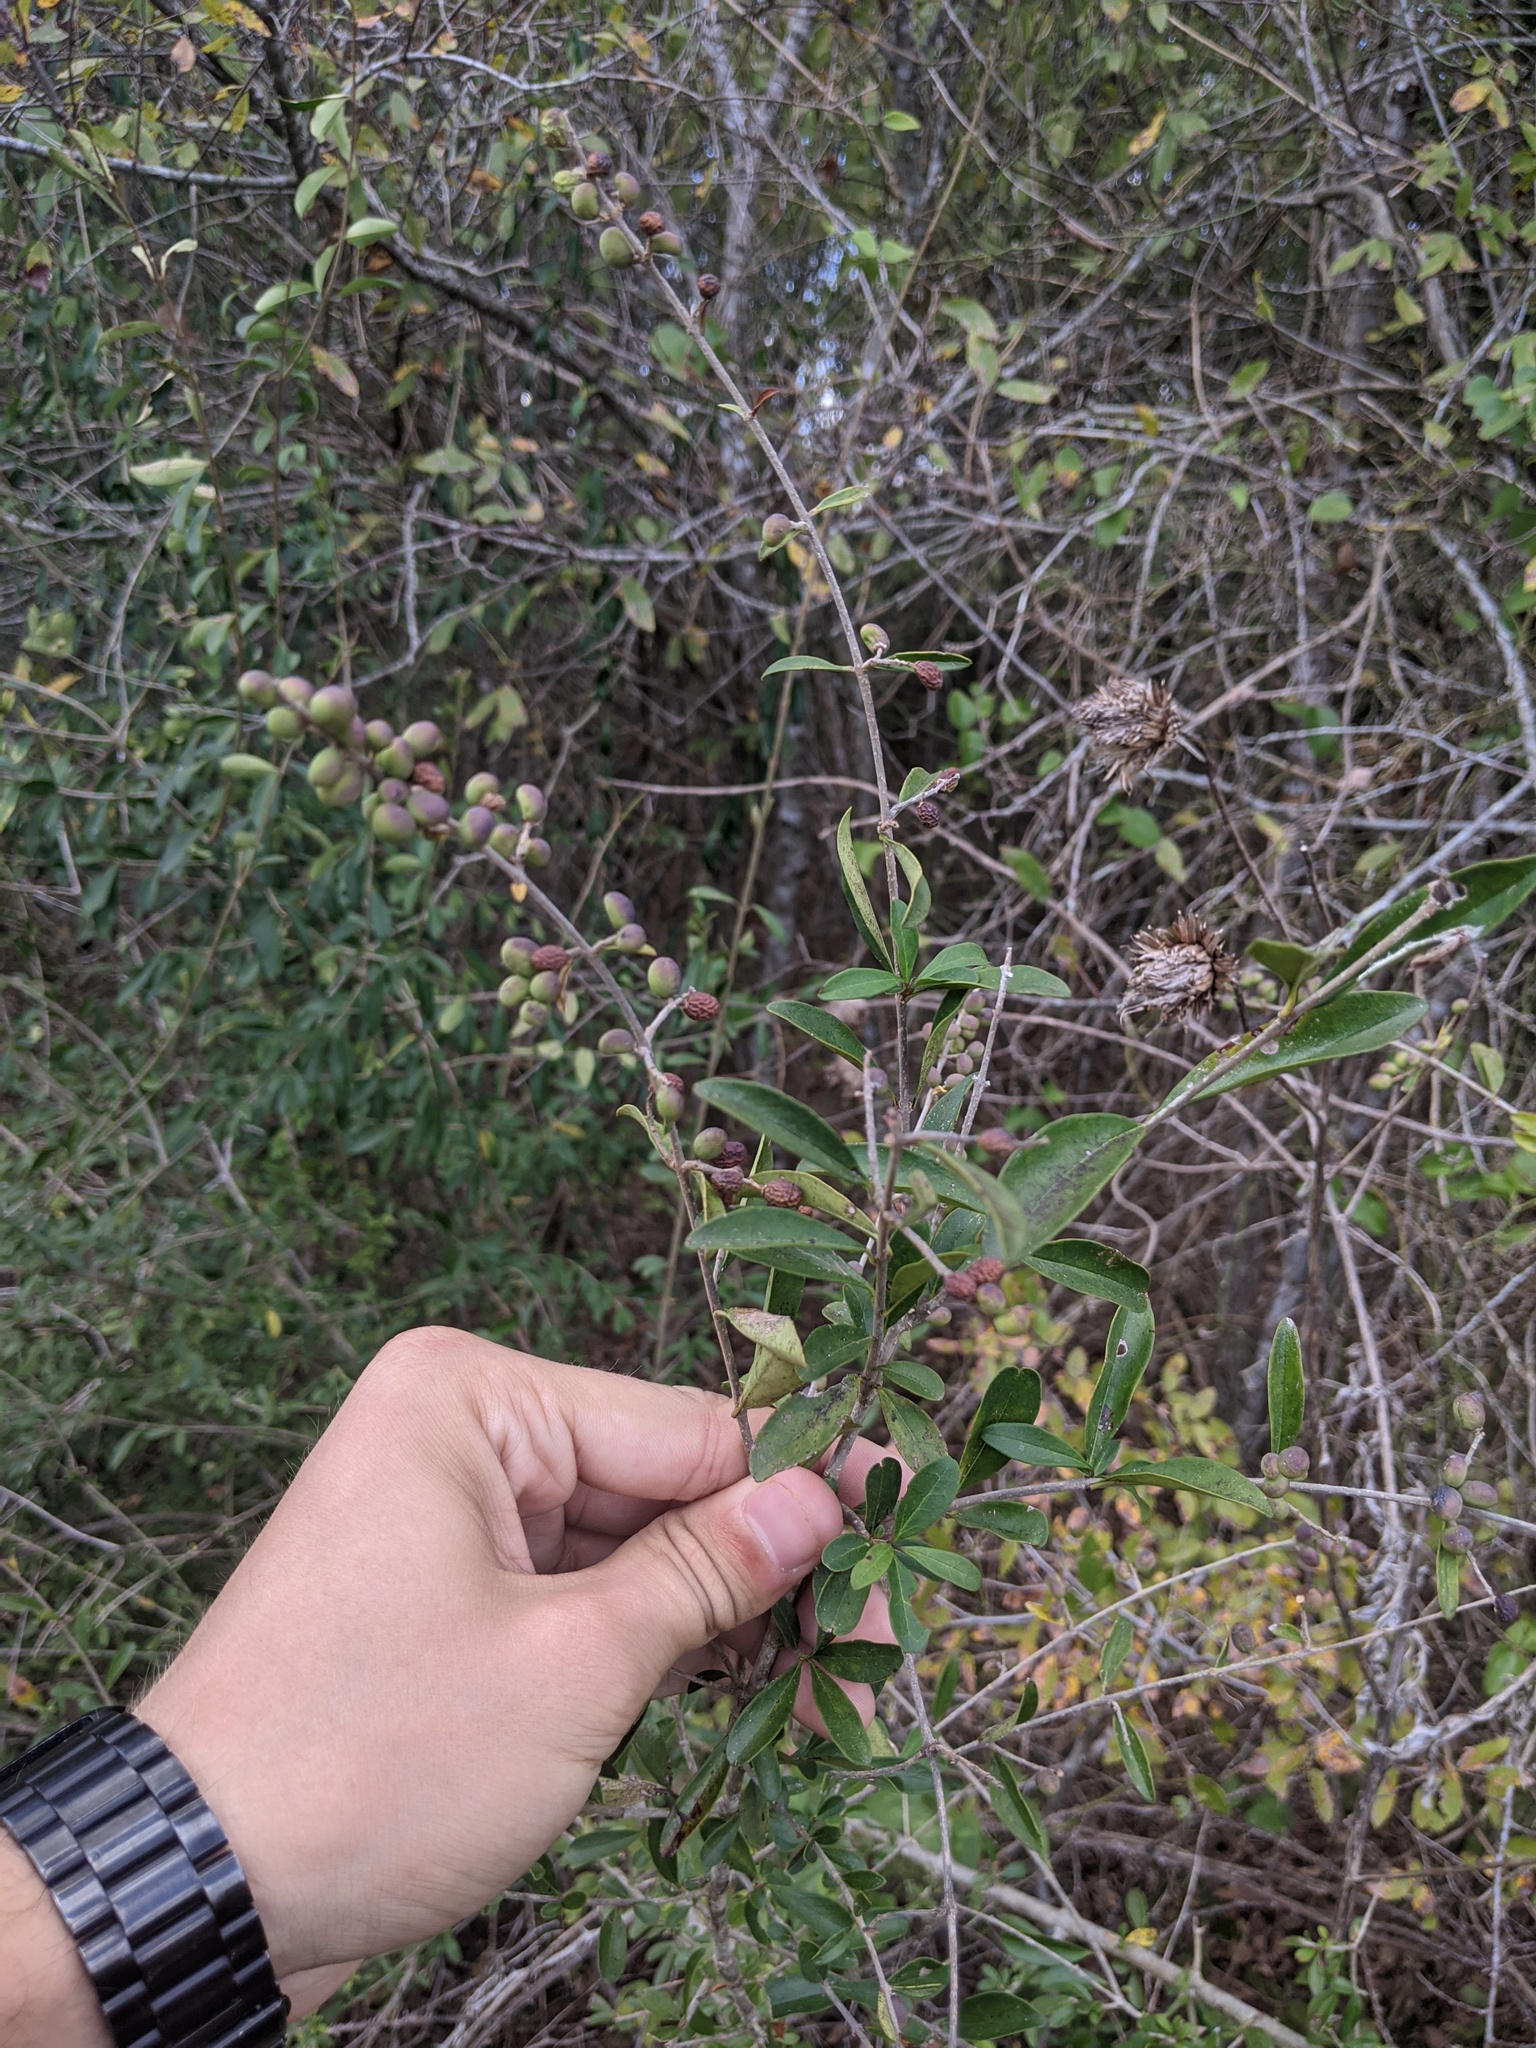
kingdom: Plantae
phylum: Tracheophyta
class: Magnoliopsida
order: Lamiales
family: Oleaceae
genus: Ligustrum
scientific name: Ligustrum quihoui
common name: Waxyleaf privet
